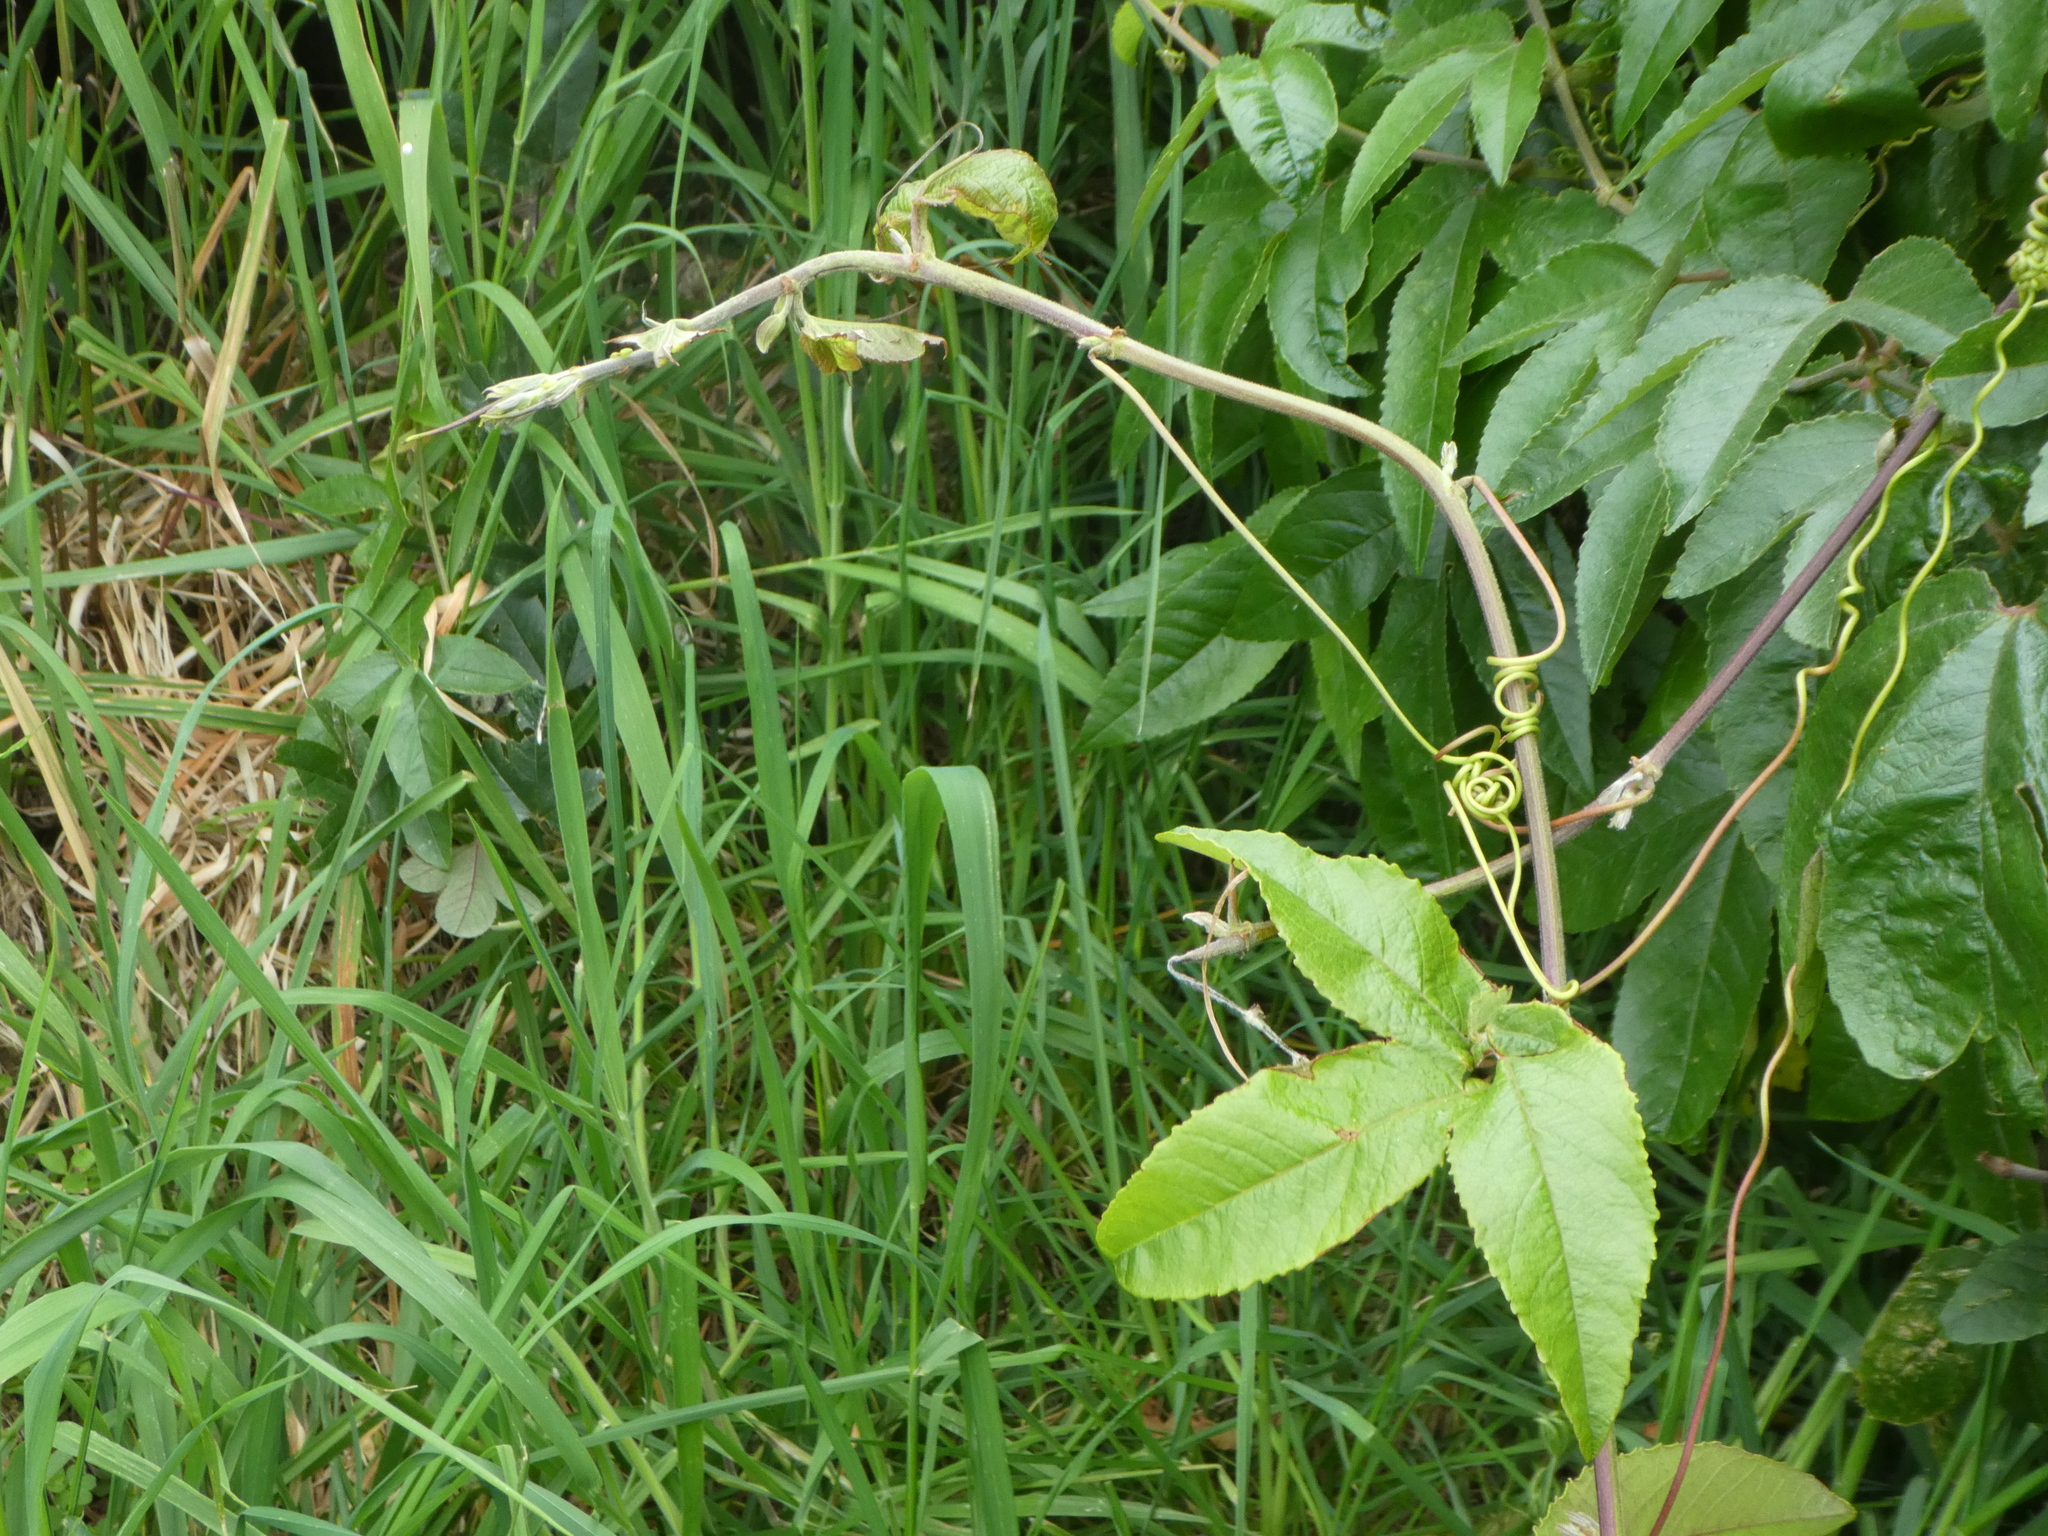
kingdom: Plantae
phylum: Tracheophyta
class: Magnoliopsida
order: Malpighiales
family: Passifloraceae
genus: Passiflora
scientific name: Passiflora tripartita
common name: Banana poka
